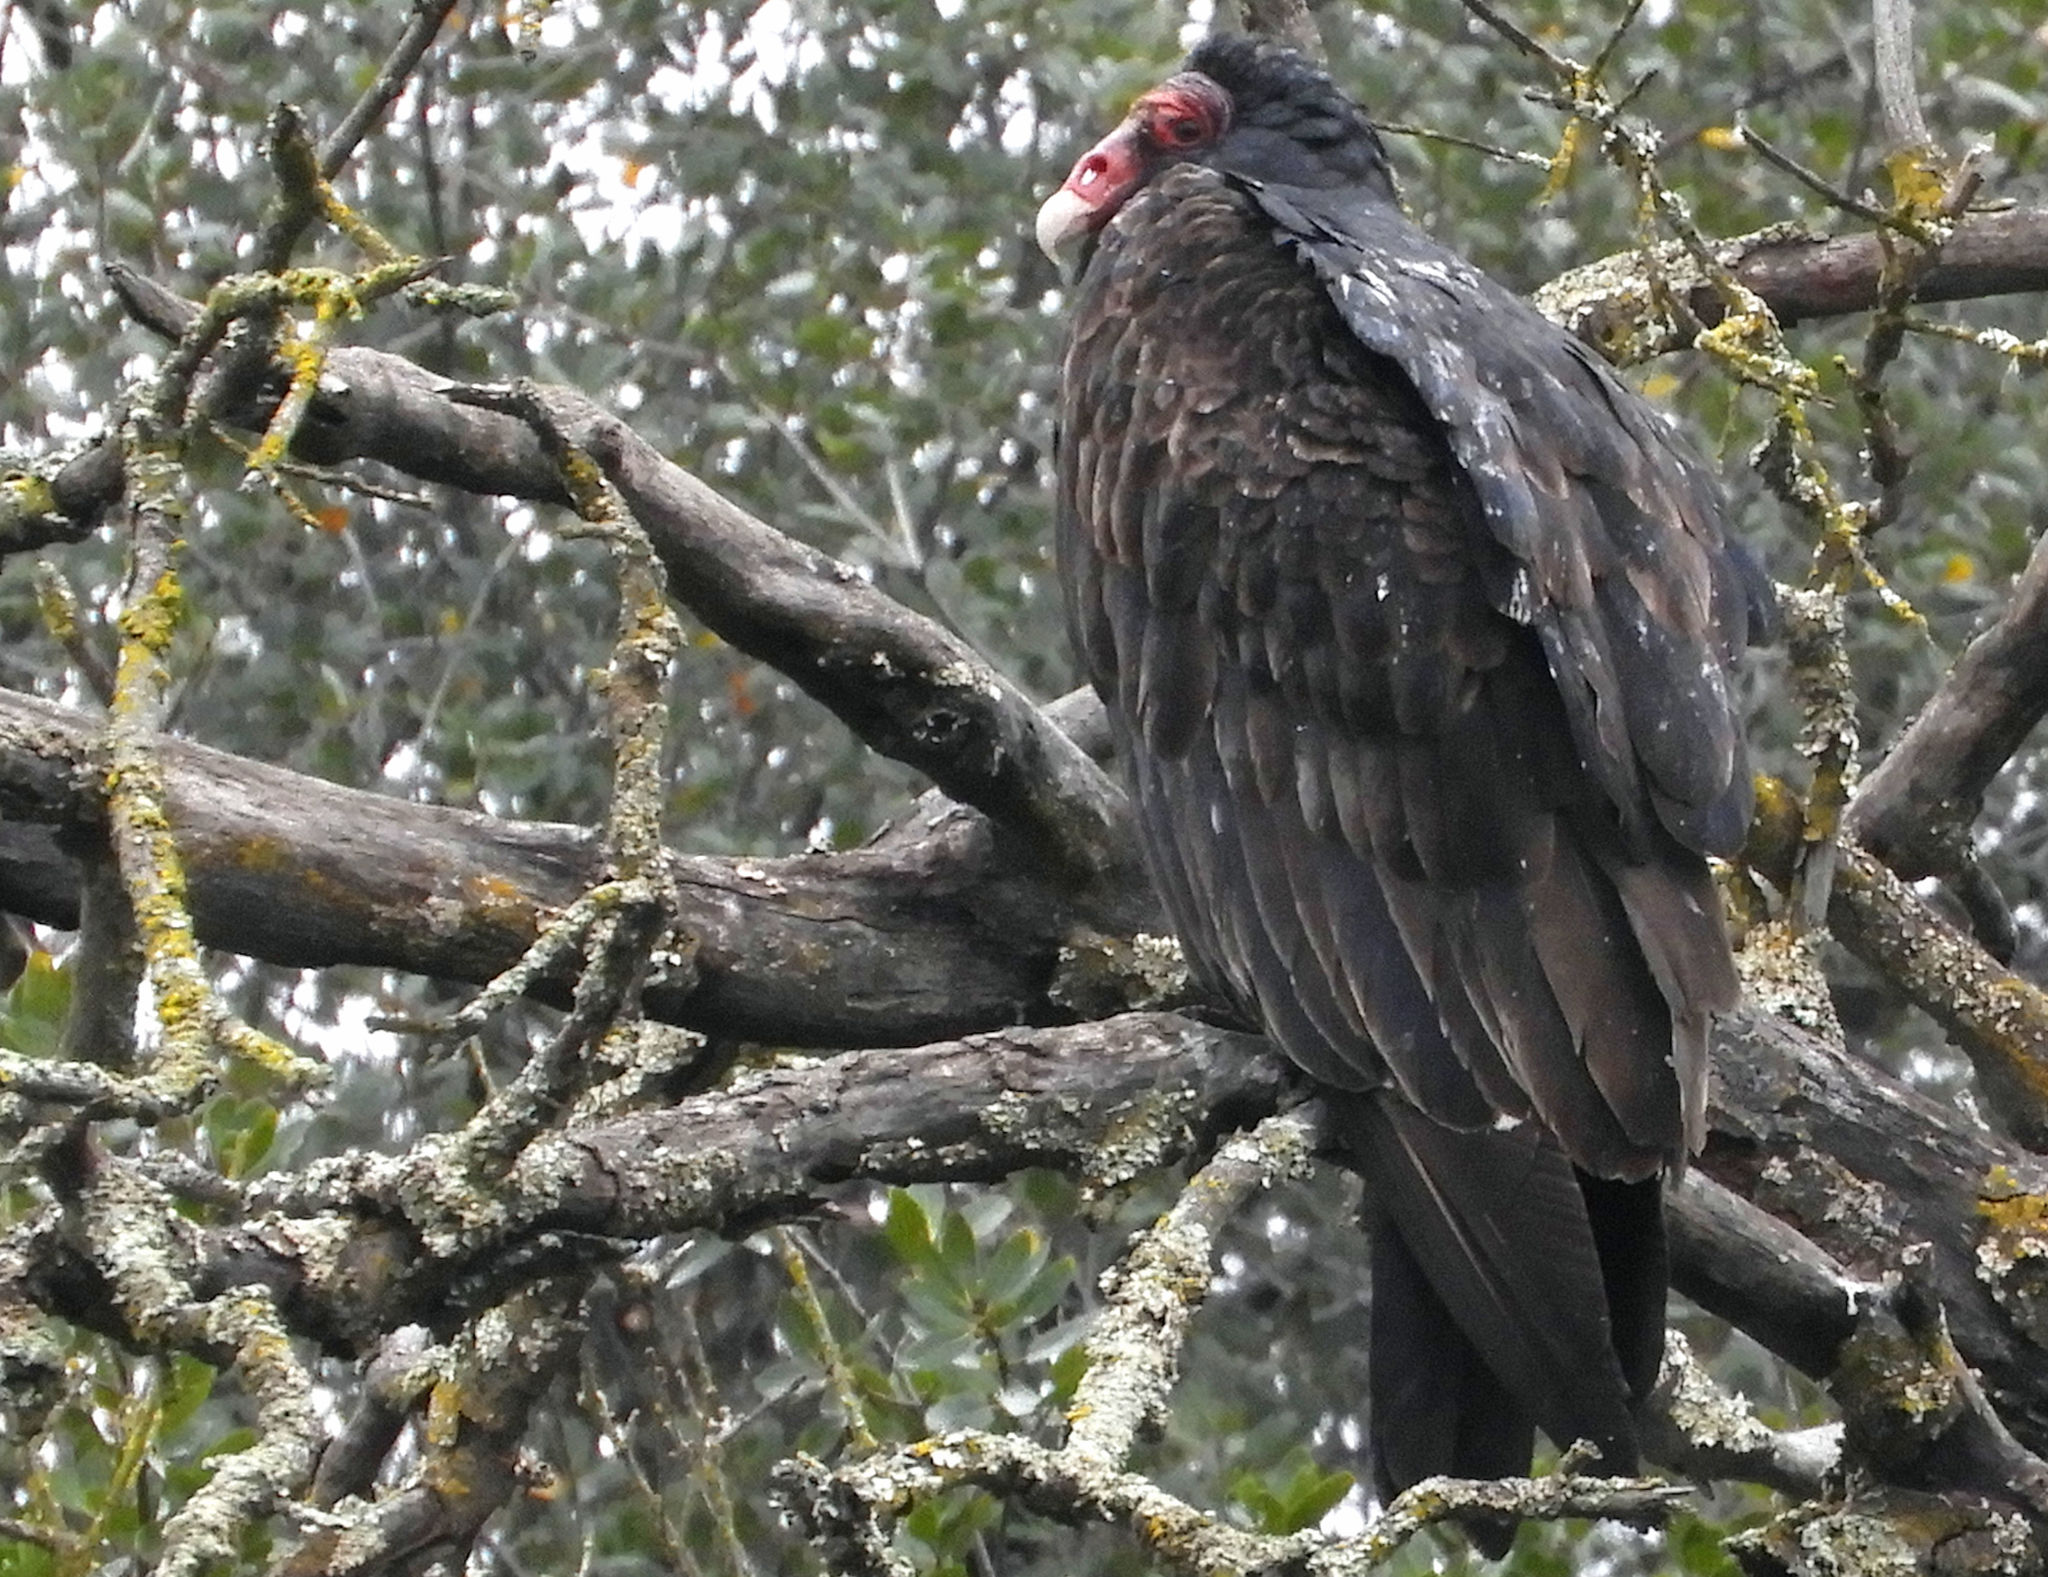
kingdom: Animalia
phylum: Chordata
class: Aves
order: Accipitriformes
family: Cathartidae
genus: Cathartes
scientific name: Cathartes aura
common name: Turkey vulture
